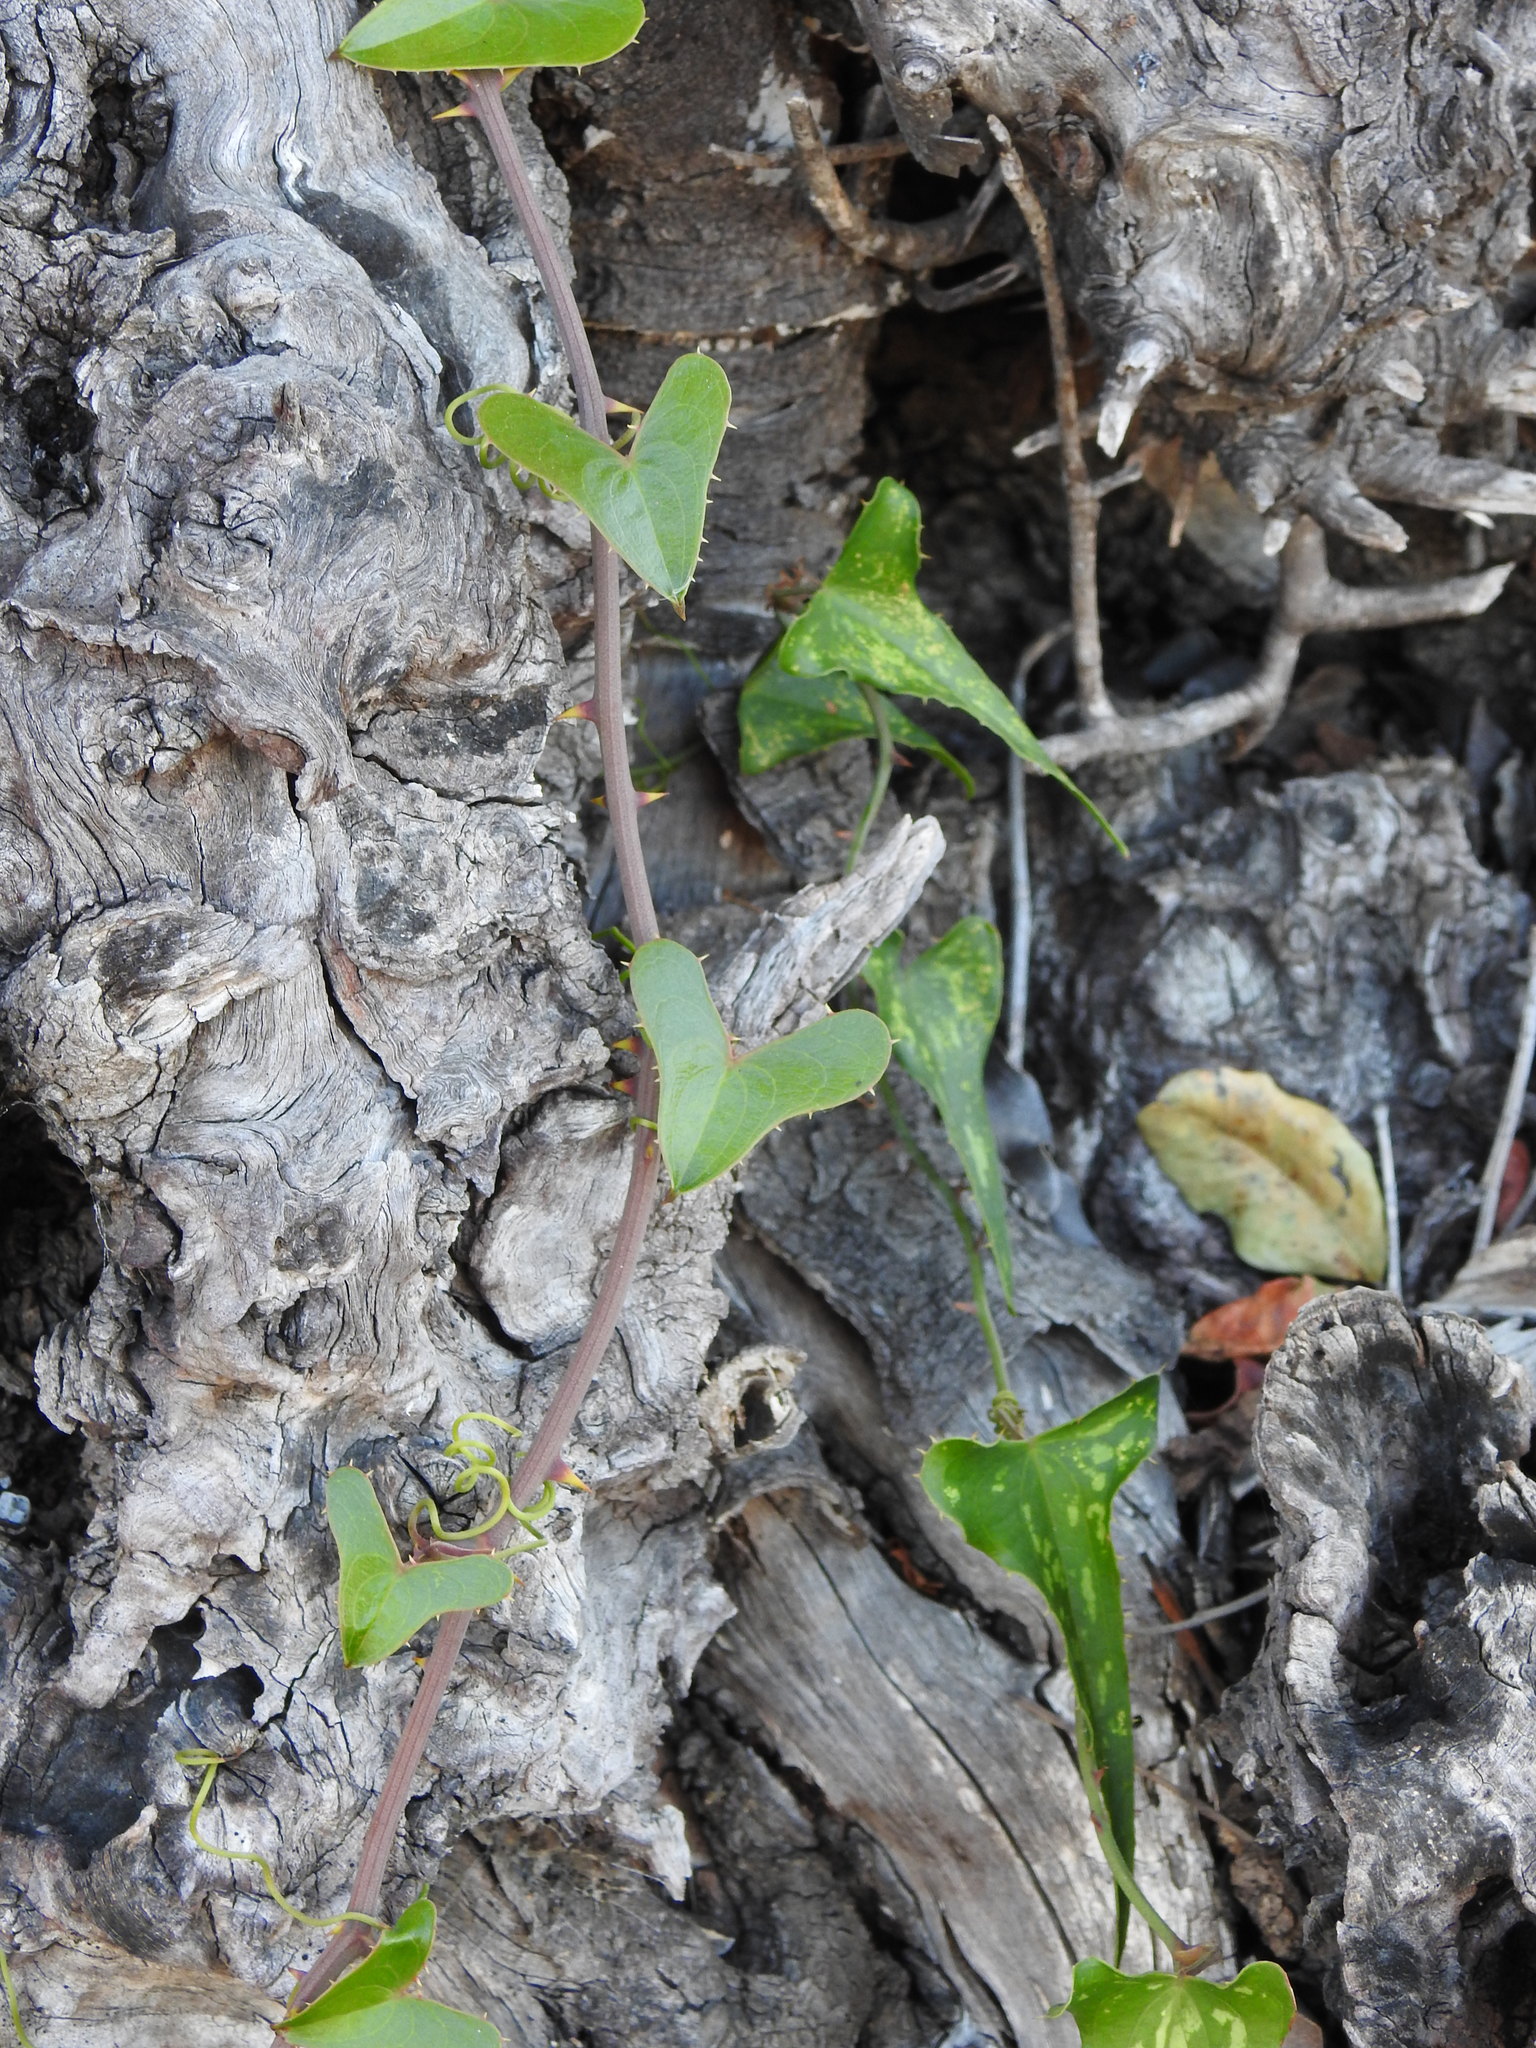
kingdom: Plantae
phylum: Tracheophyta
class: Liliopsida
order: Liliales
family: Smilacaceae
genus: Smilax
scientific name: Smilax aspera
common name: Common smilax
